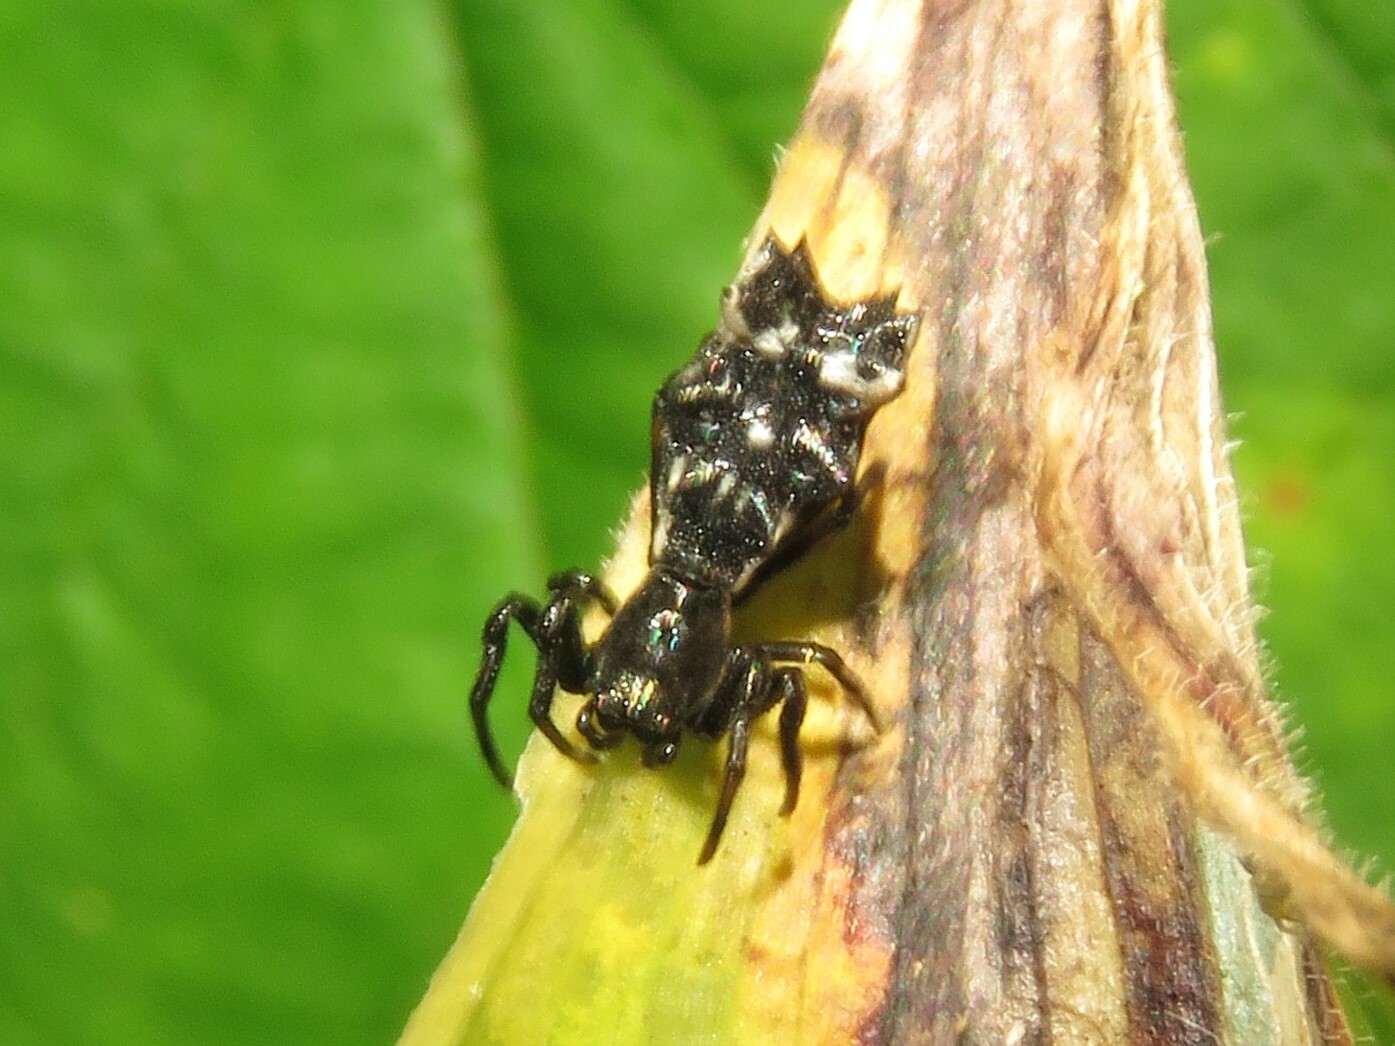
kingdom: Animalia
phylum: Arthropoda
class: Arachnida
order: Araneae
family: Araneidae
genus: Micrathena
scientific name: Micrathena gracilis
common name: Orb weavers
